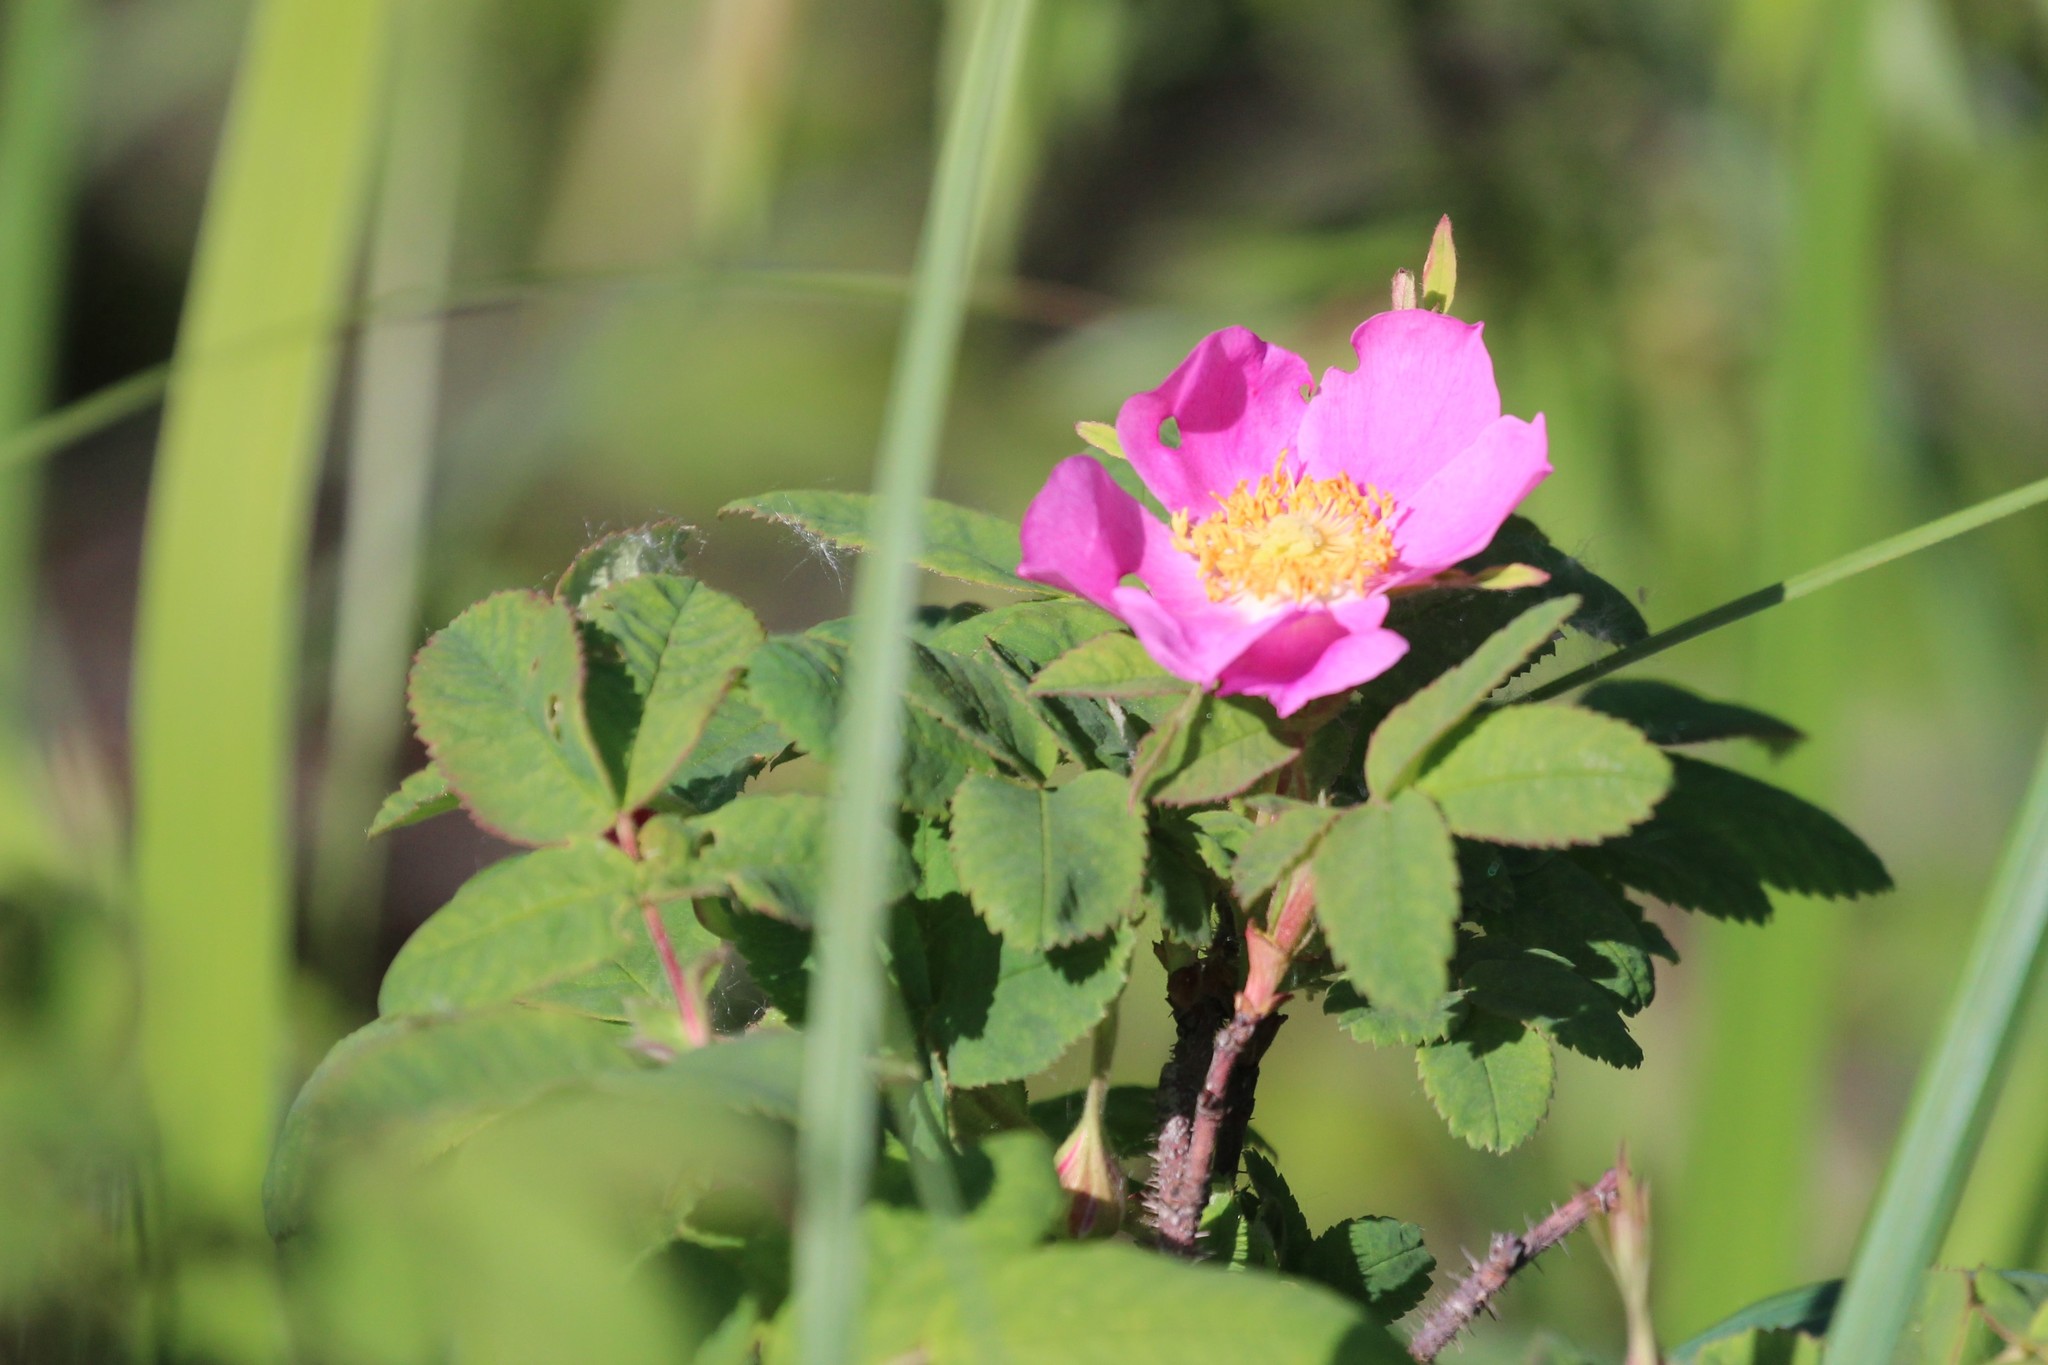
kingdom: Plantae
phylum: Tracheophyta
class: Magnoliopsida
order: Rosales
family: Rosaceae
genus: Rosa
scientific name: Rosa acicularis
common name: Prickly rose
